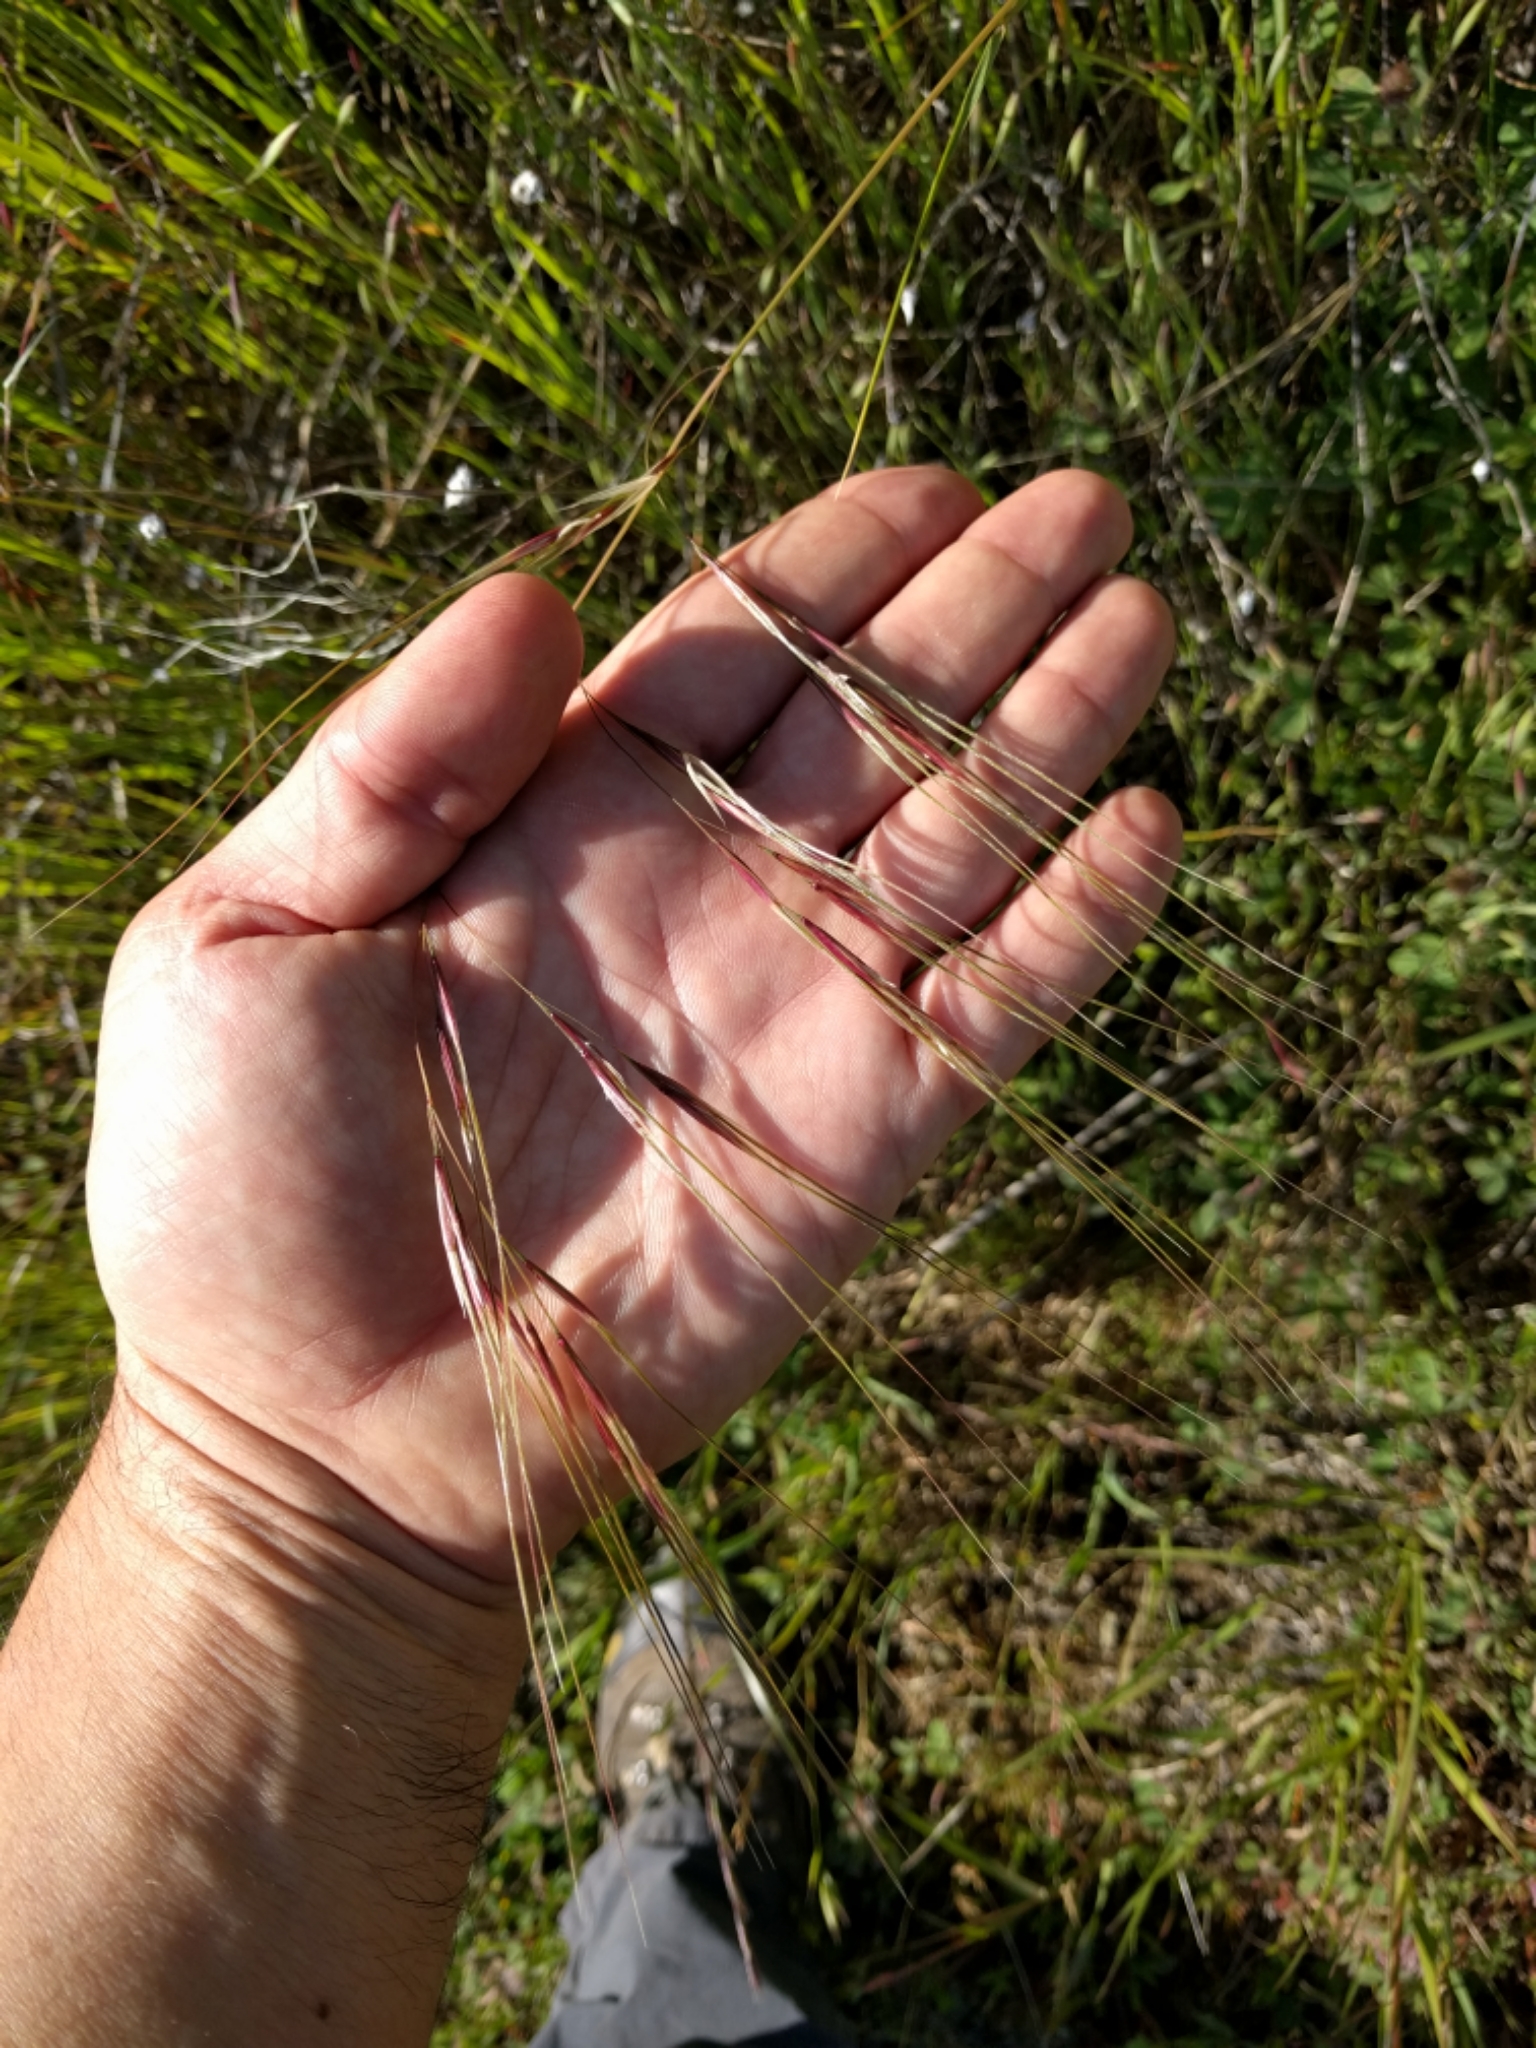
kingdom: Plantae
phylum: Tracheophyta
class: Liliopsida
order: Poales
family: Poaceae
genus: Nassella
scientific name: Nassella pulchra
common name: Purple needlegrass
